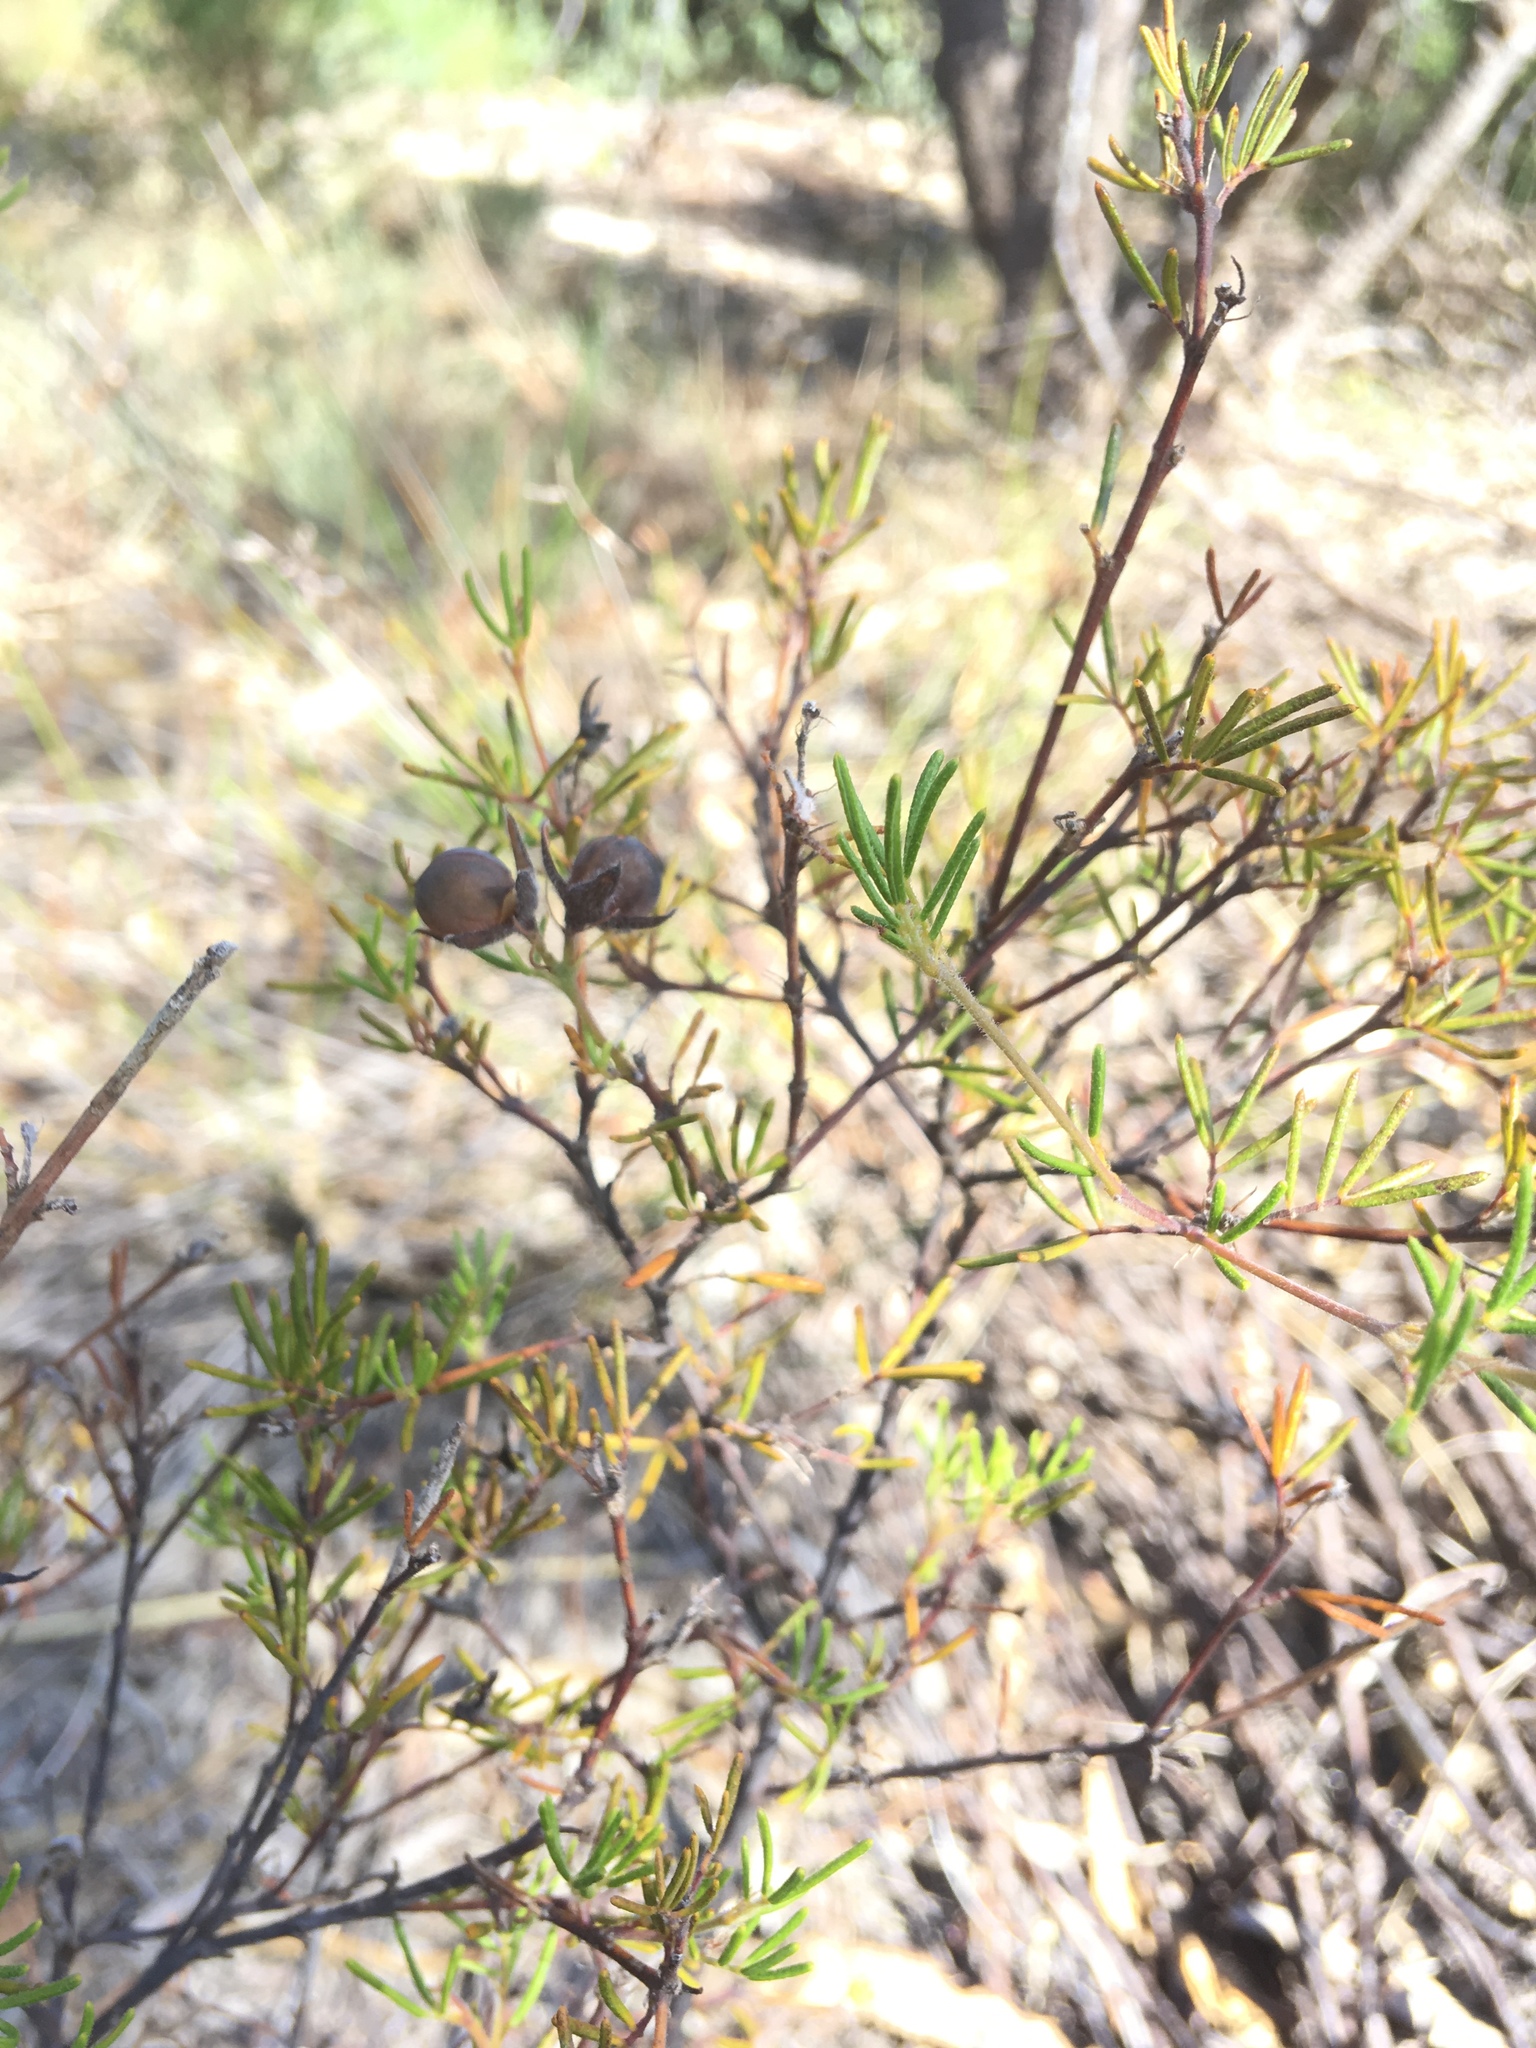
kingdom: Plantae
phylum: Tracheophyta
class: Magnoliopsida
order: Fabales
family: Fabaceae
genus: Gompholobium
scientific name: Gompholobium tomentosum
